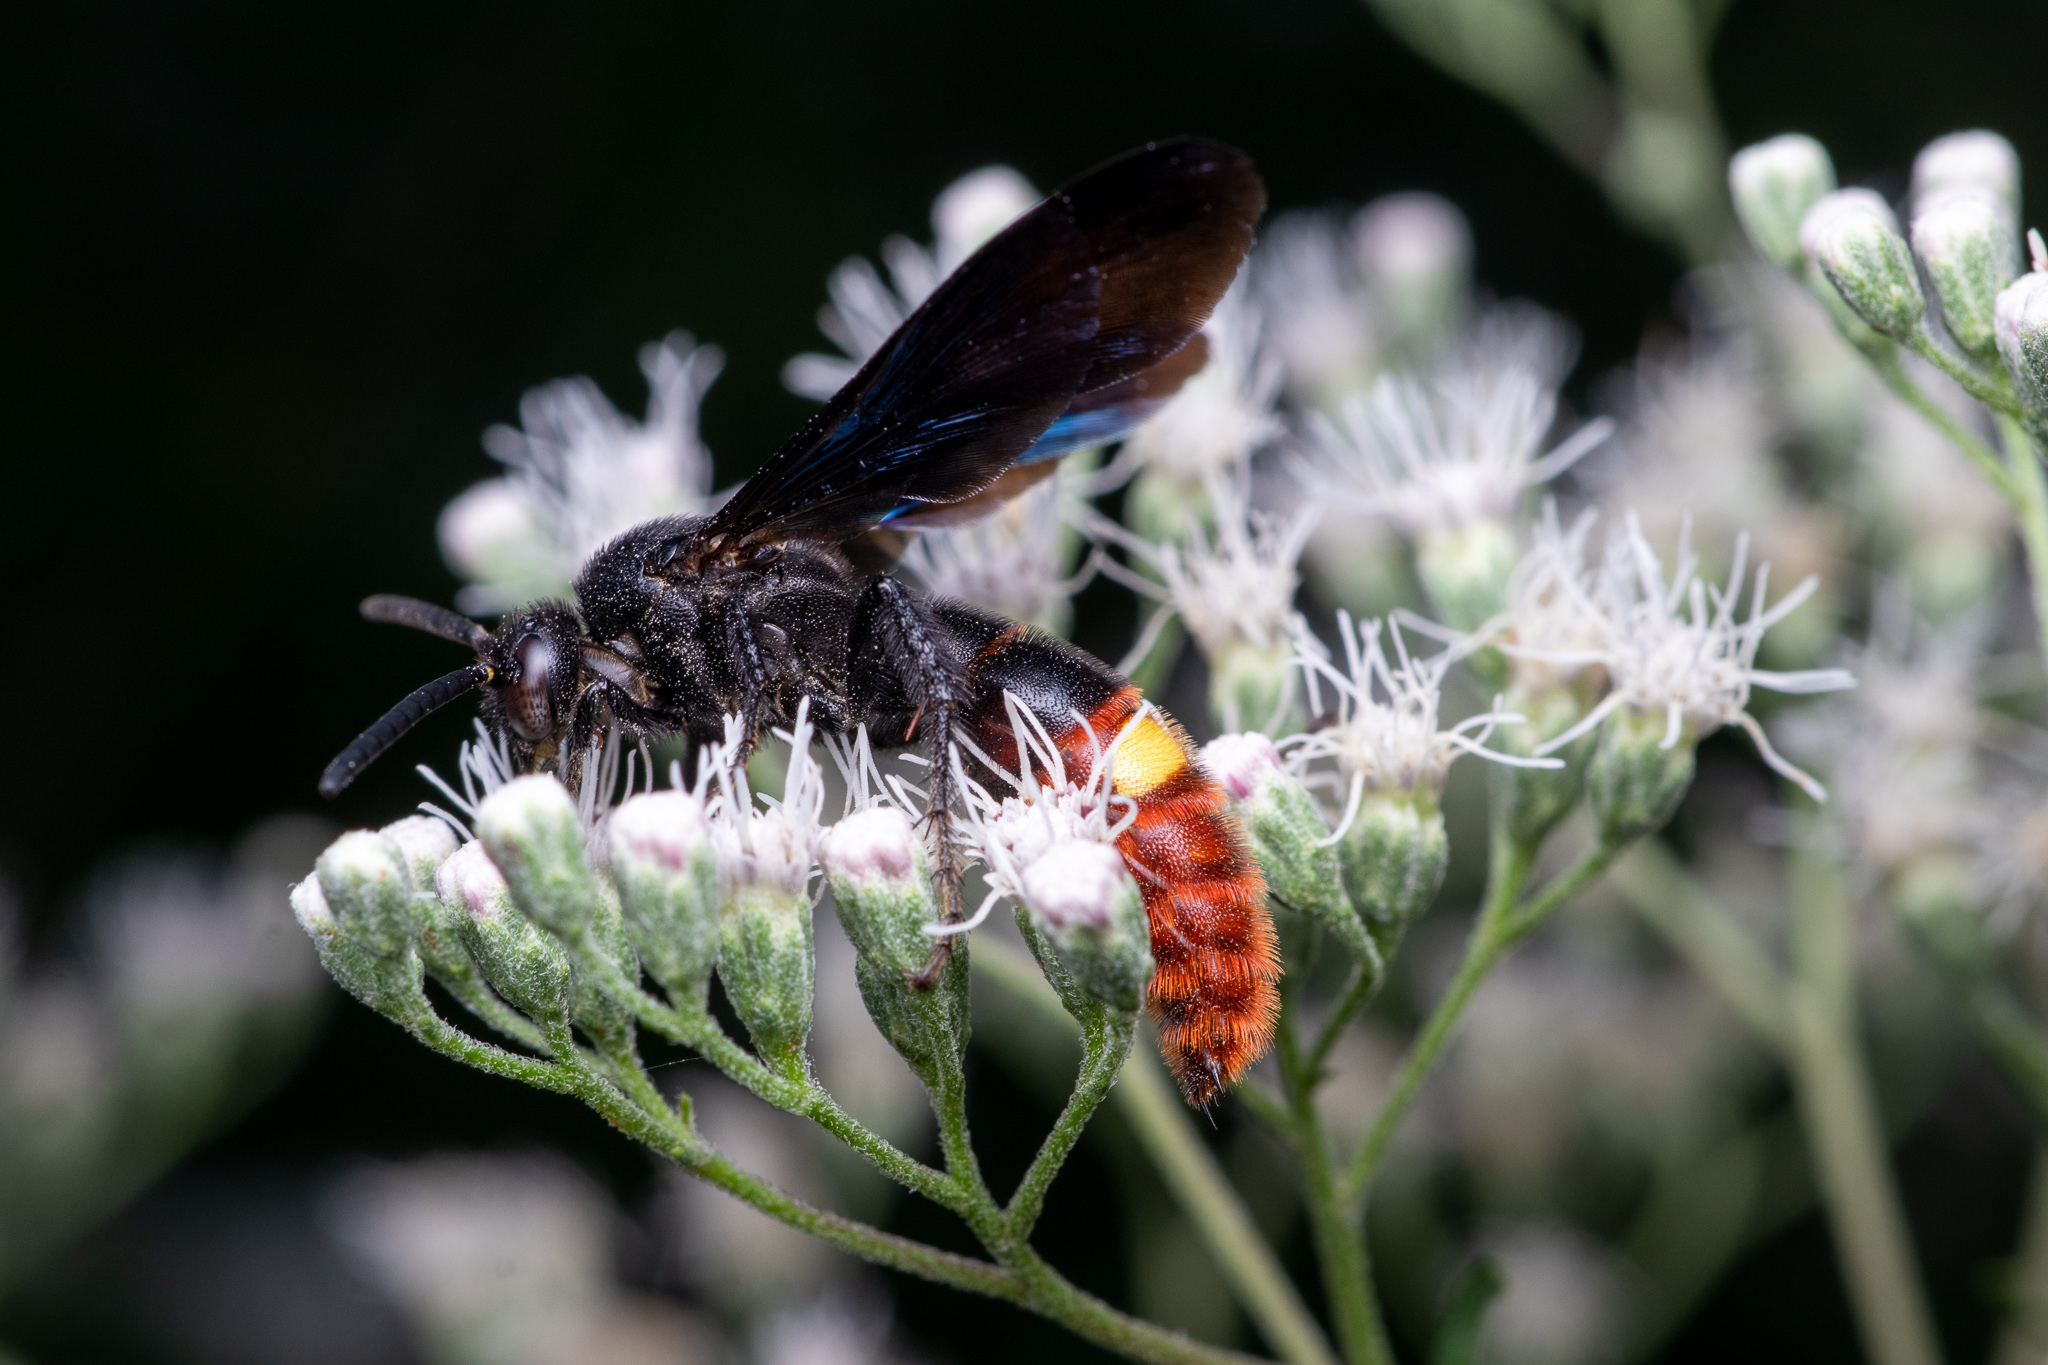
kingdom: Animalia
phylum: Arthropoda
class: Insecta
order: Hymenoptera
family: Scoliidae
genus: Scolia
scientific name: Scolia dubia
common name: Blue-winged scoliid wasp
